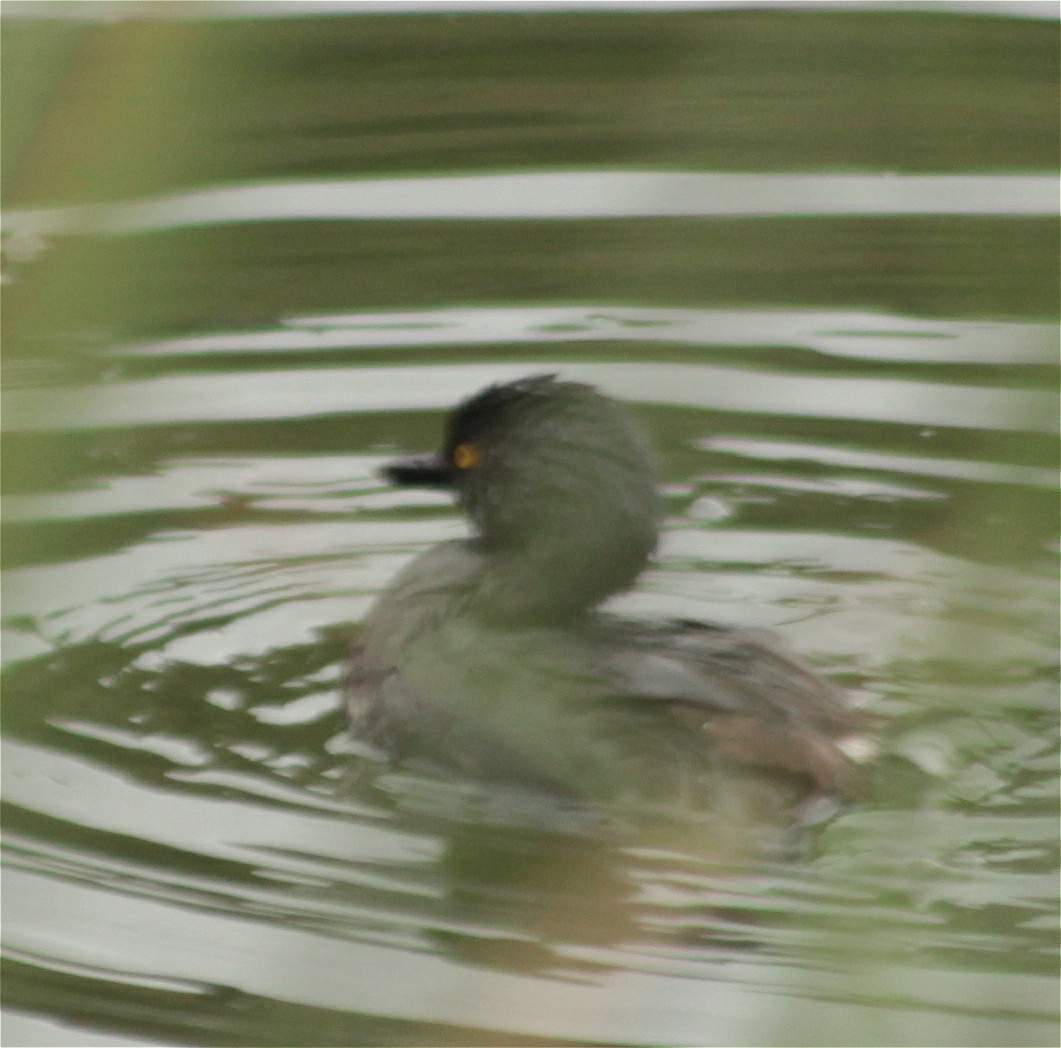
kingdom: Animalia
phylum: Chordata
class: Aves
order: Podicipediformes
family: Podicipedidae
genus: Tachybaptus
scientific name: Tachybaptus dominicus
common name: Least grebe
